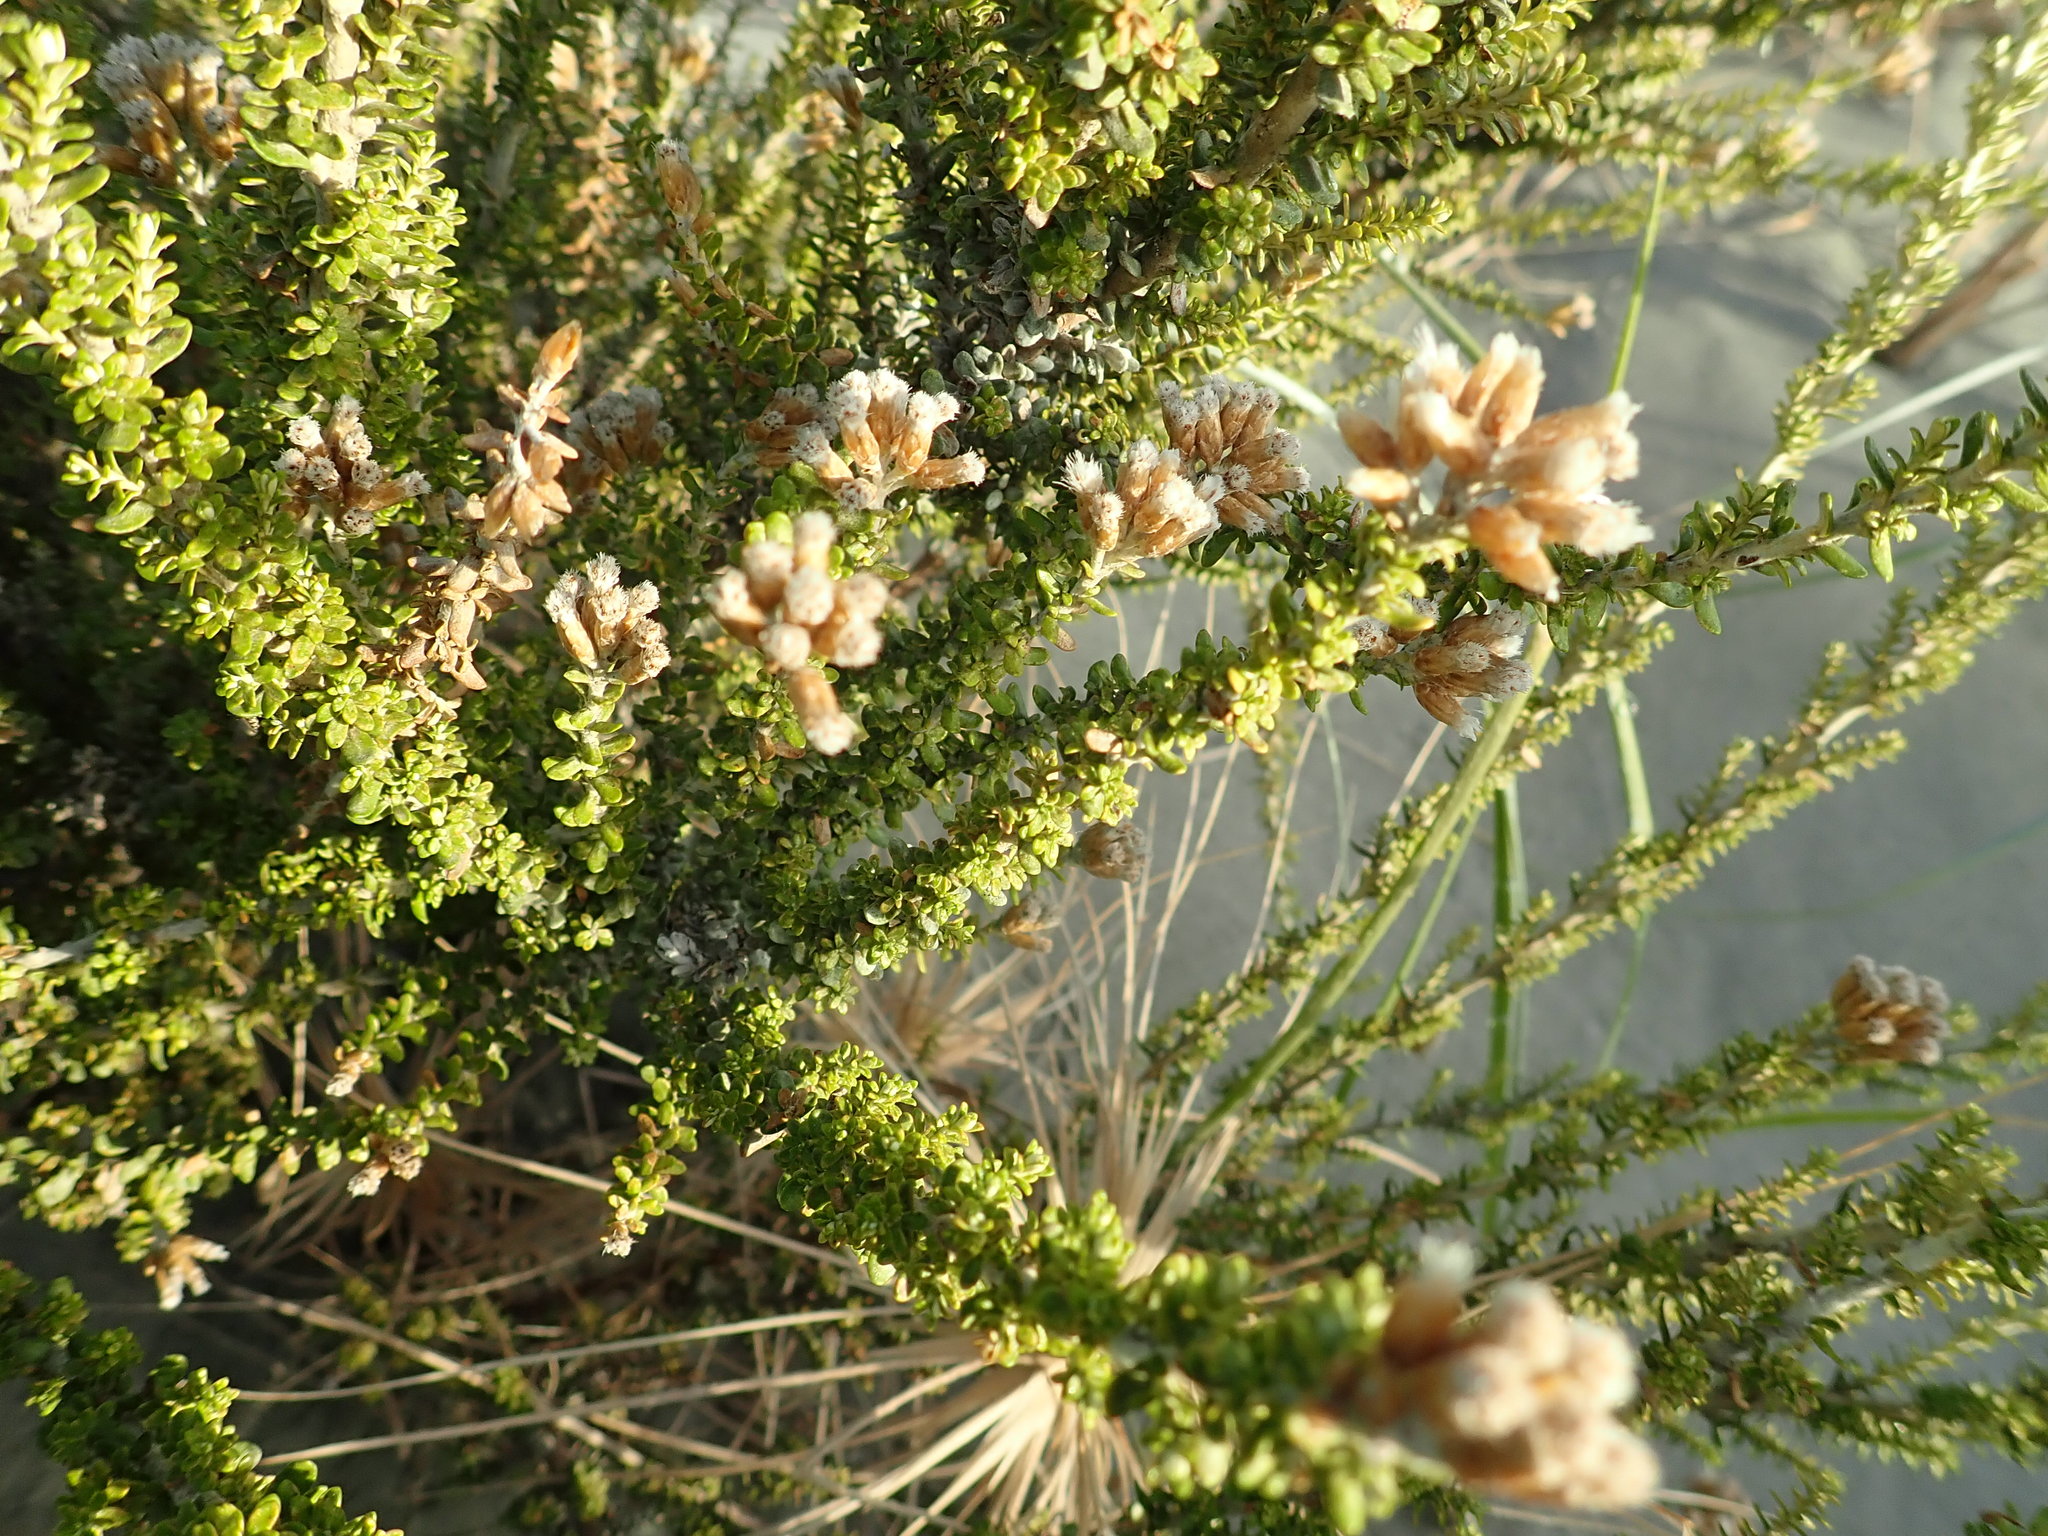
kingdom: Plantae
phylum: Tracheophyta
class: Magnoliopsida
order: Asterales
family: Asteraceae
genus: Ozothamnus
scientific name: Ozothamnus leptophyllus
